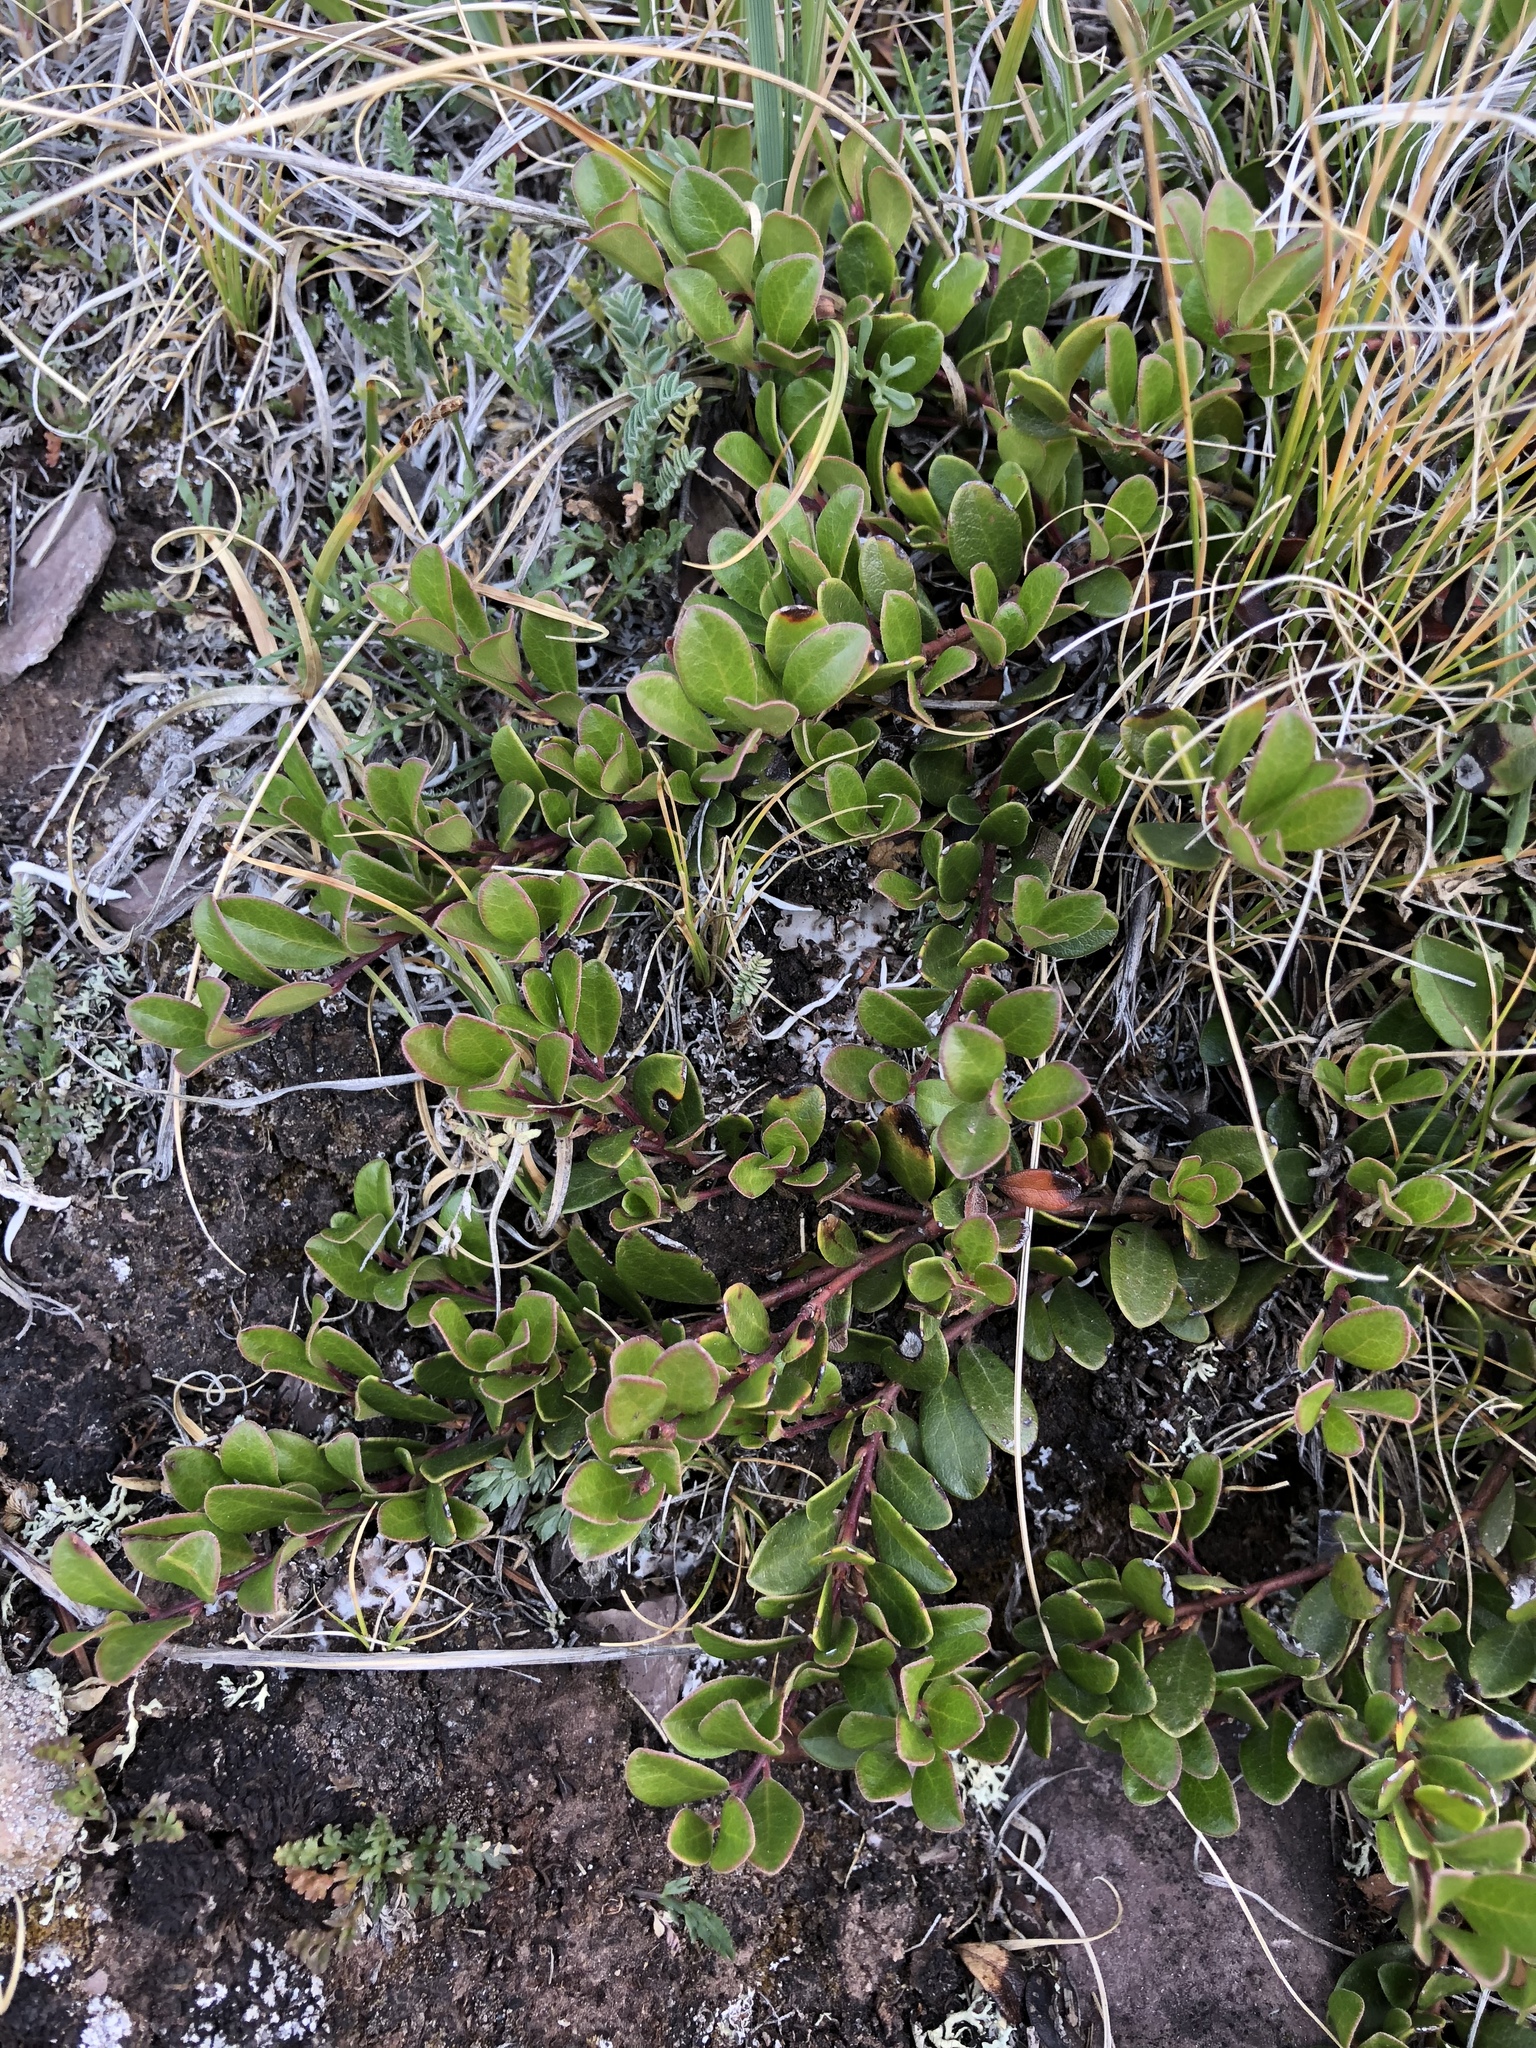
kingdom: Plantae
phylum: Tracheophyta
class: Magnoliopsida
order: Ericales
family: Ericaceae
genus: Arctostaphylos
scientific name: Arctostaphylos uva-ursi
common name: Bearberry
